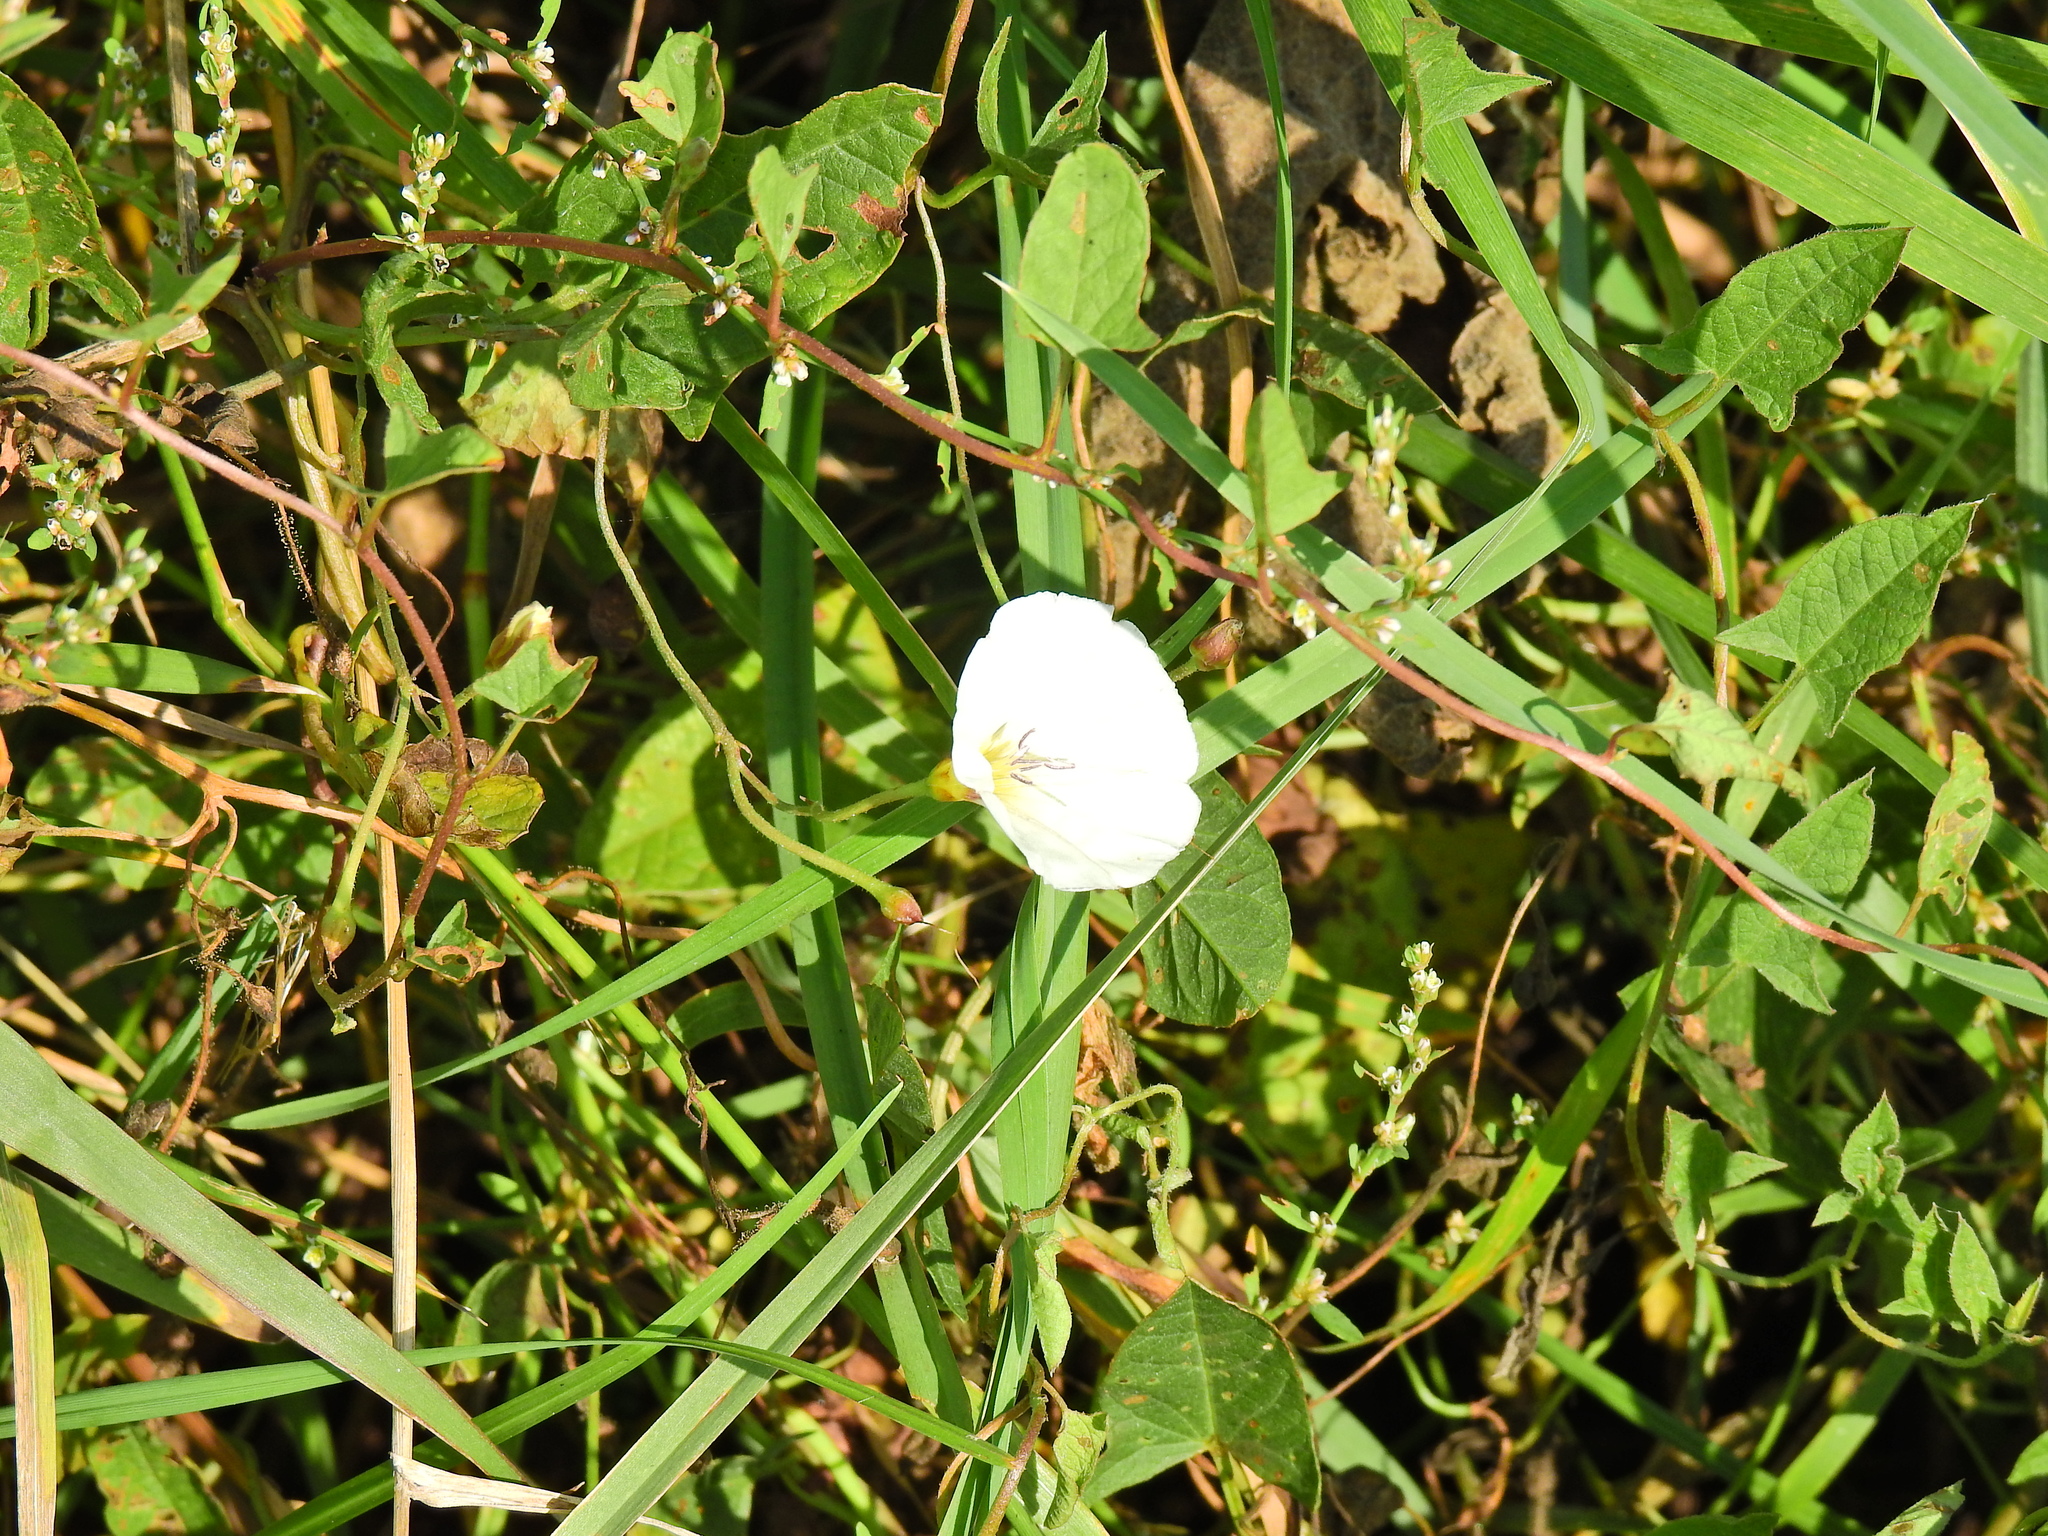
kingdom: Plantae
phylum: Tracheophyta
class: Magnoliopsida
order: Solanales
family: Convolvulaceae
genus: Convolvulus
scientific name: Convolvulus arvensis
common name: Field bindweed
